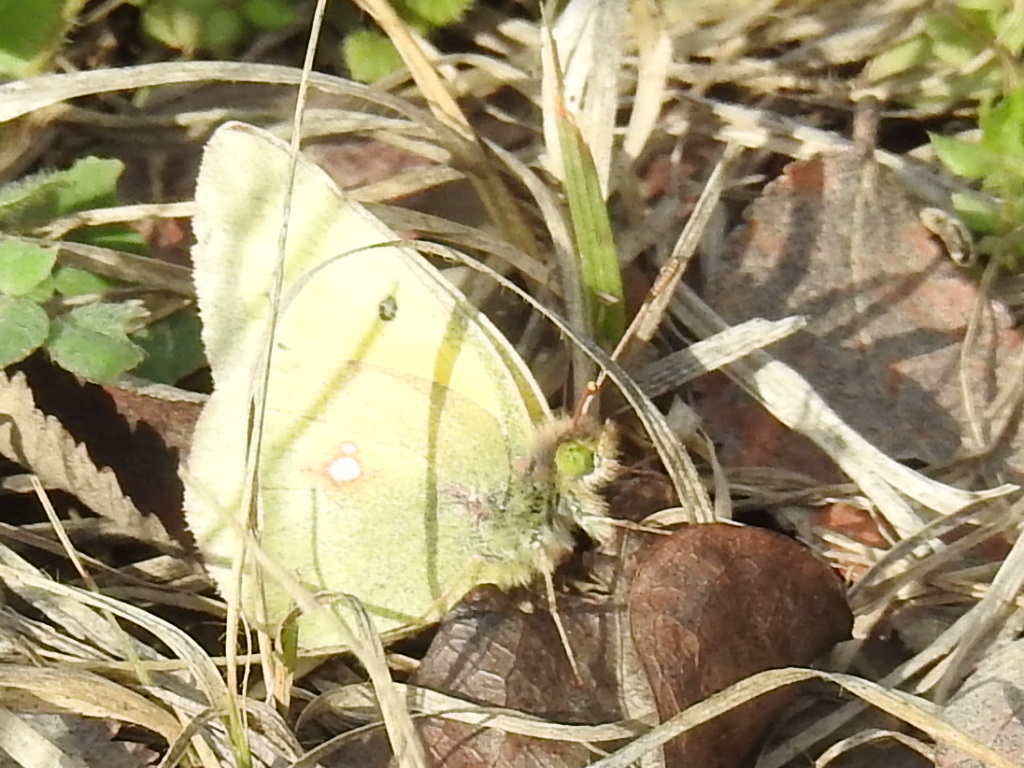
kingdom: Animalia
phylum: Arthropoda
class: Insecta
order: Lepidoptera
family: Pieridae
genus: Colias
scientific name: Colias eurytheme
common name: Alfalfa butterfly
